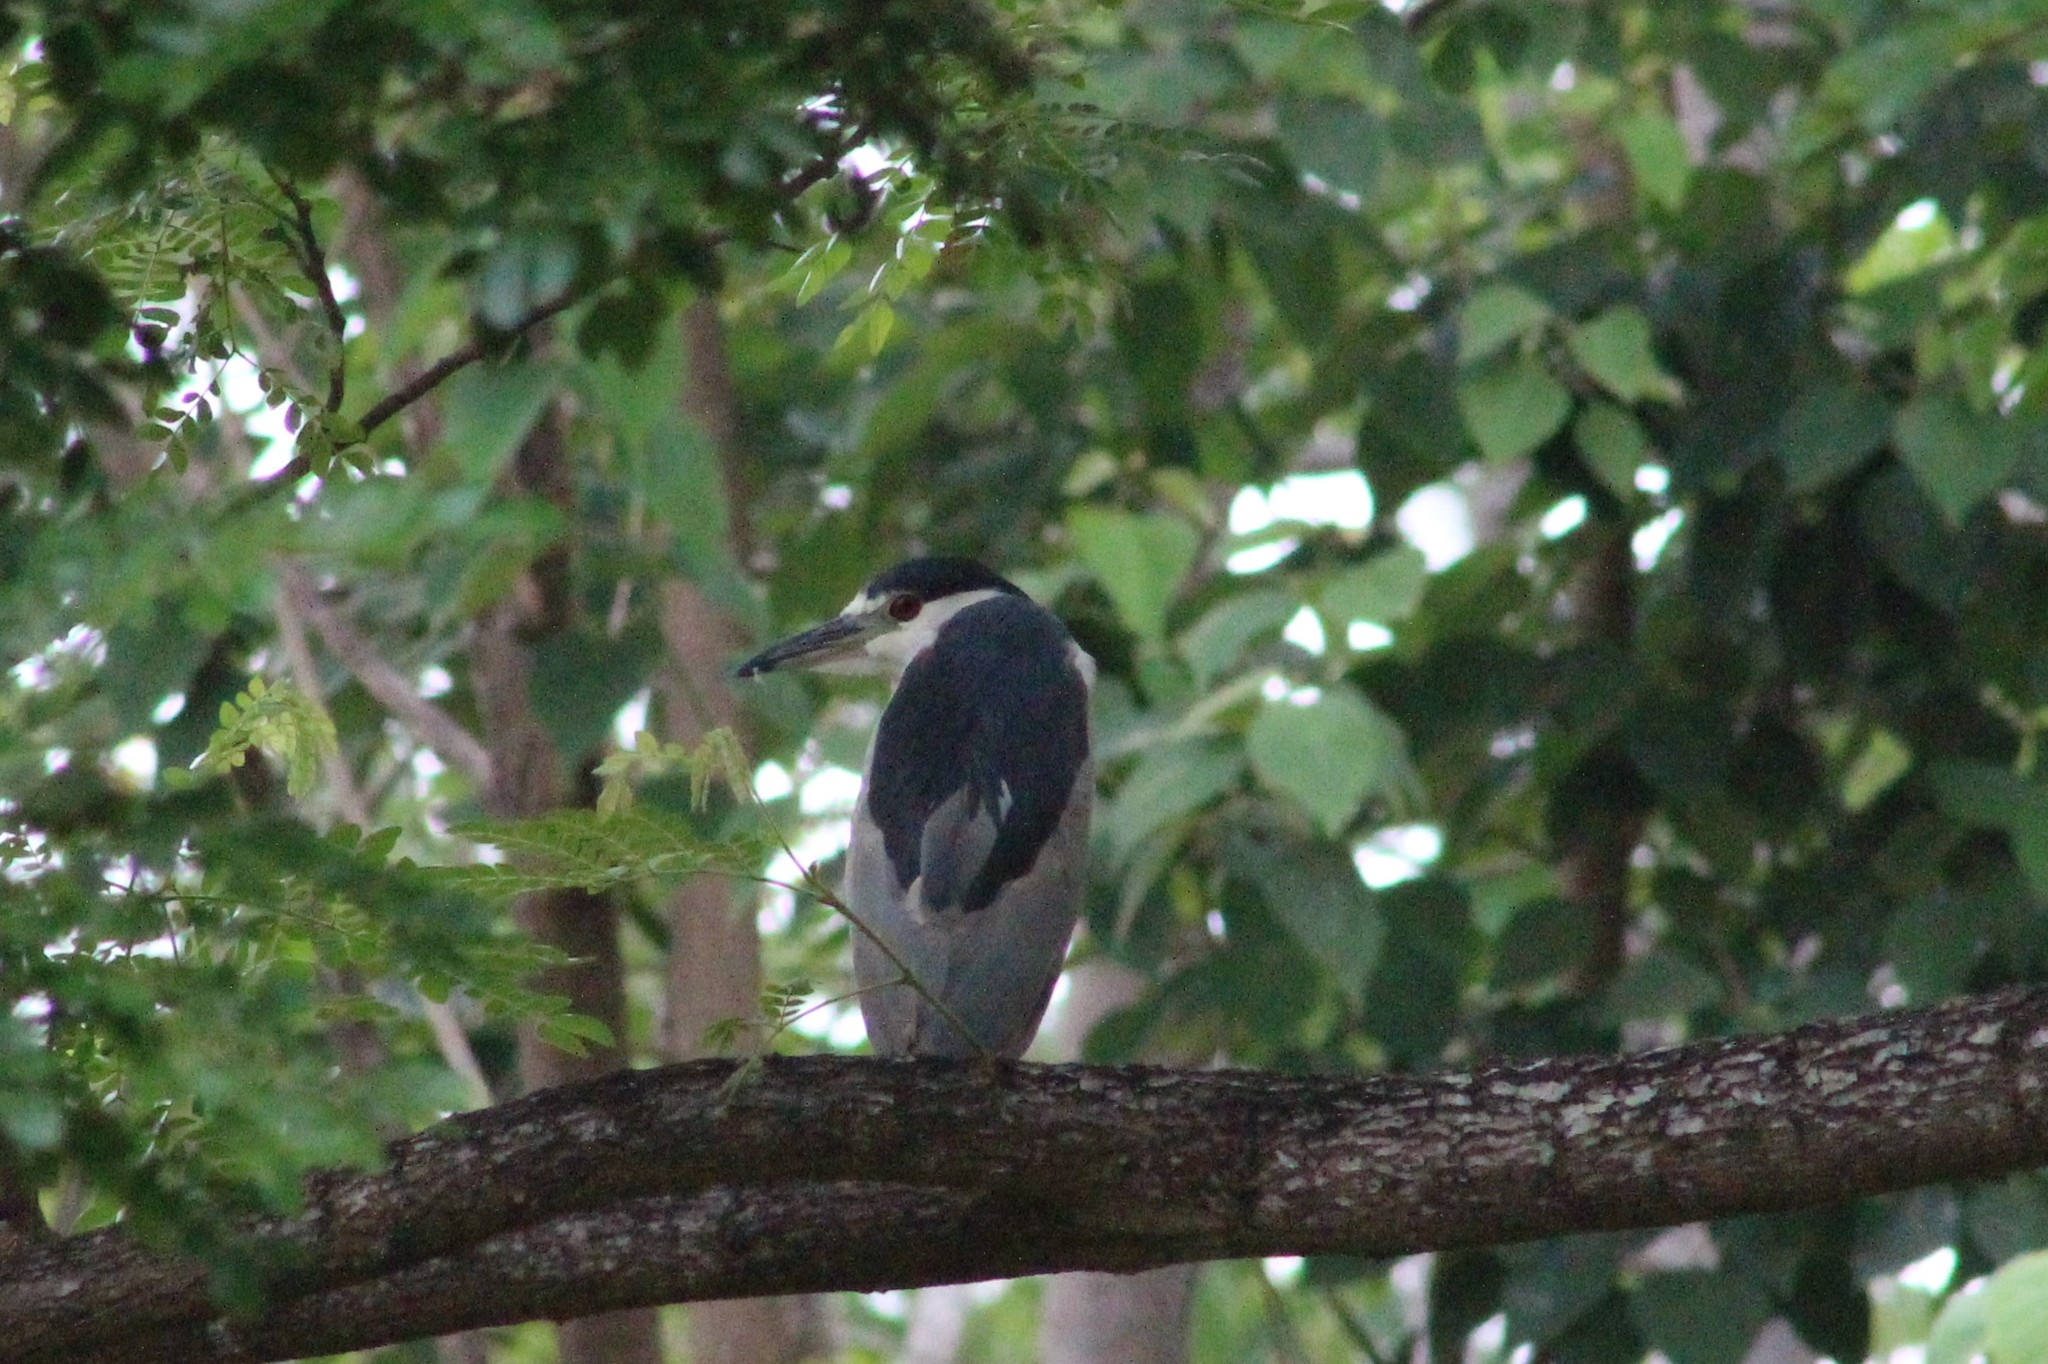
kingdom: Animalia
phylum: Chordata
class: Aves
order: Pelecaniformes
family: Ardeidae
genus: Nycticorax
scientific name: Nycticorax nycticorax
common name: Black-crowned night heron
